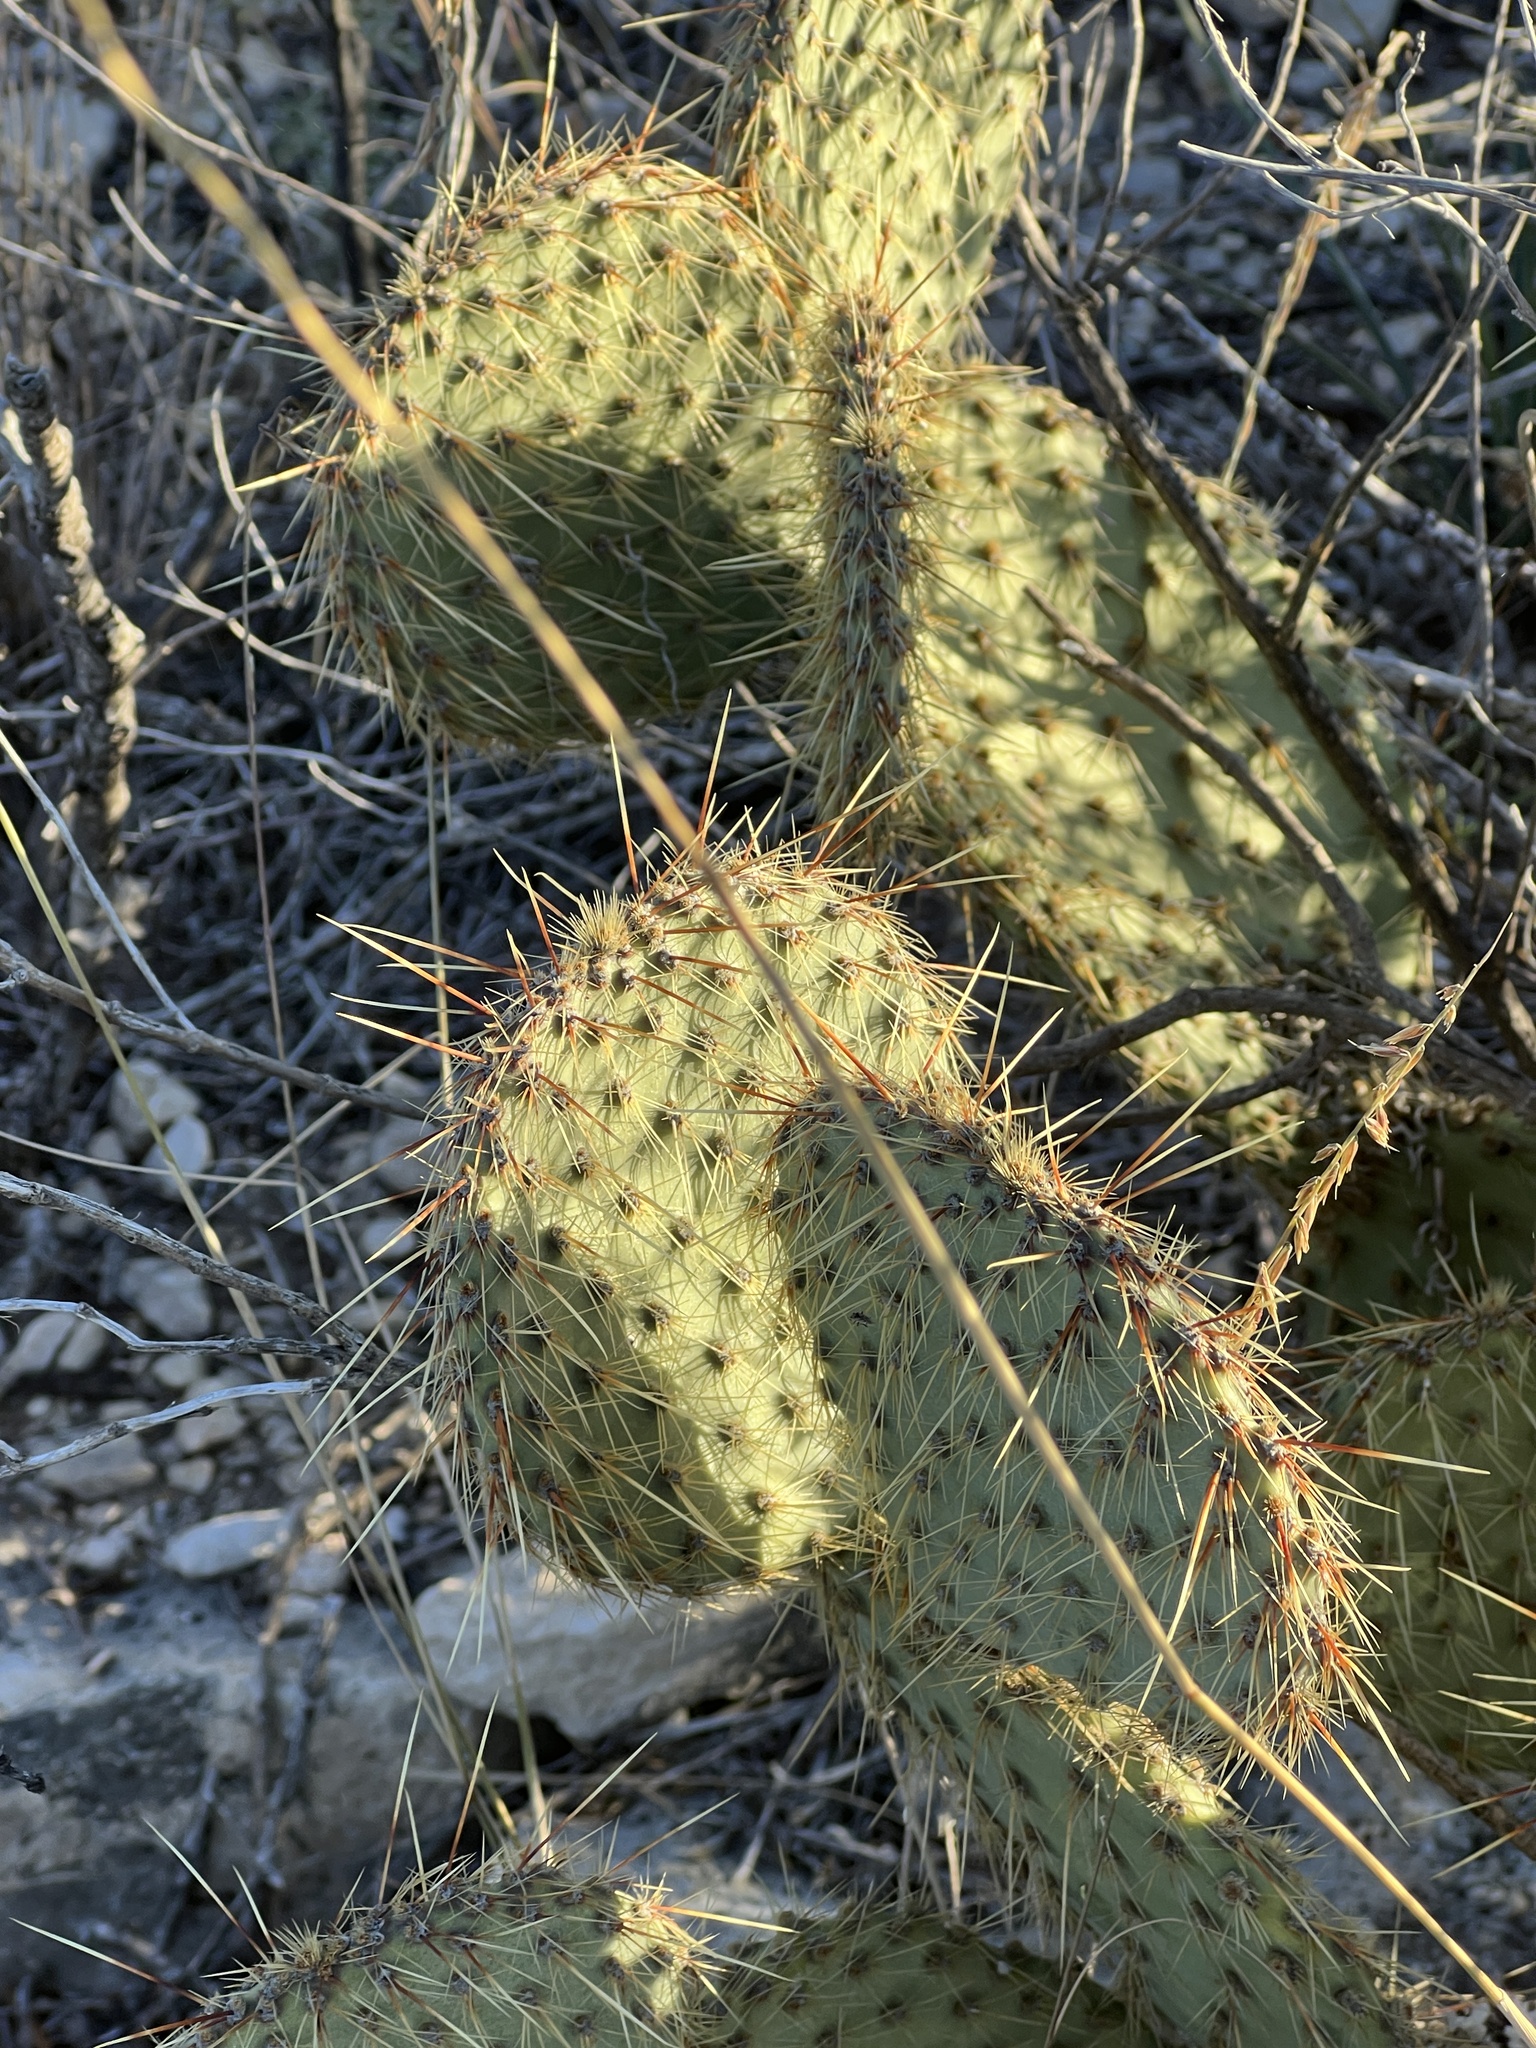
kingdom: Plantae
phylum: Tracheophyta
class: Magnoliopsida
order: Caryophyllales
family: Cactaceae
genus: Opuntia
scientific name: Opuntia strigil
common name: Marble-fruit prickly-pear
